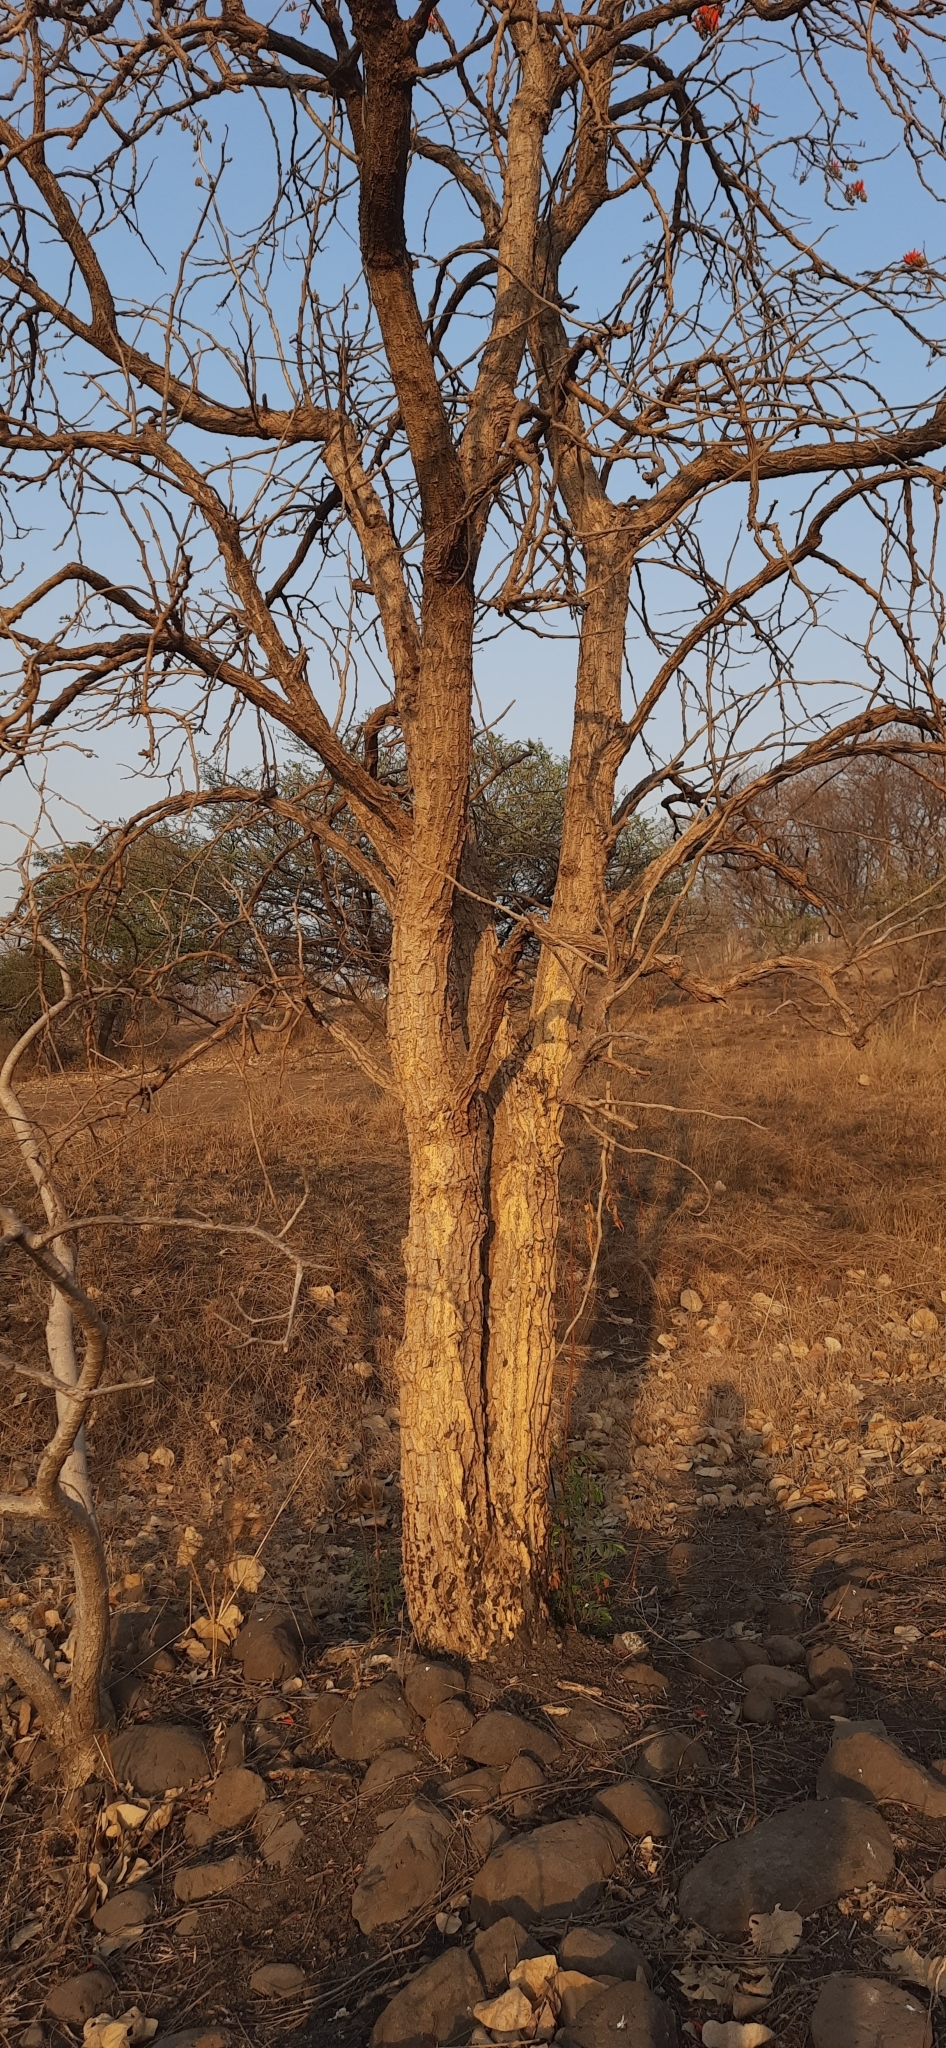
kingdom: Plantae
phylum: Tracheophyta
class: Magnoliopsida
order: Fabales
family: Fabaceae
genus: Erythrina
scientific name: Erythrina suberosa
